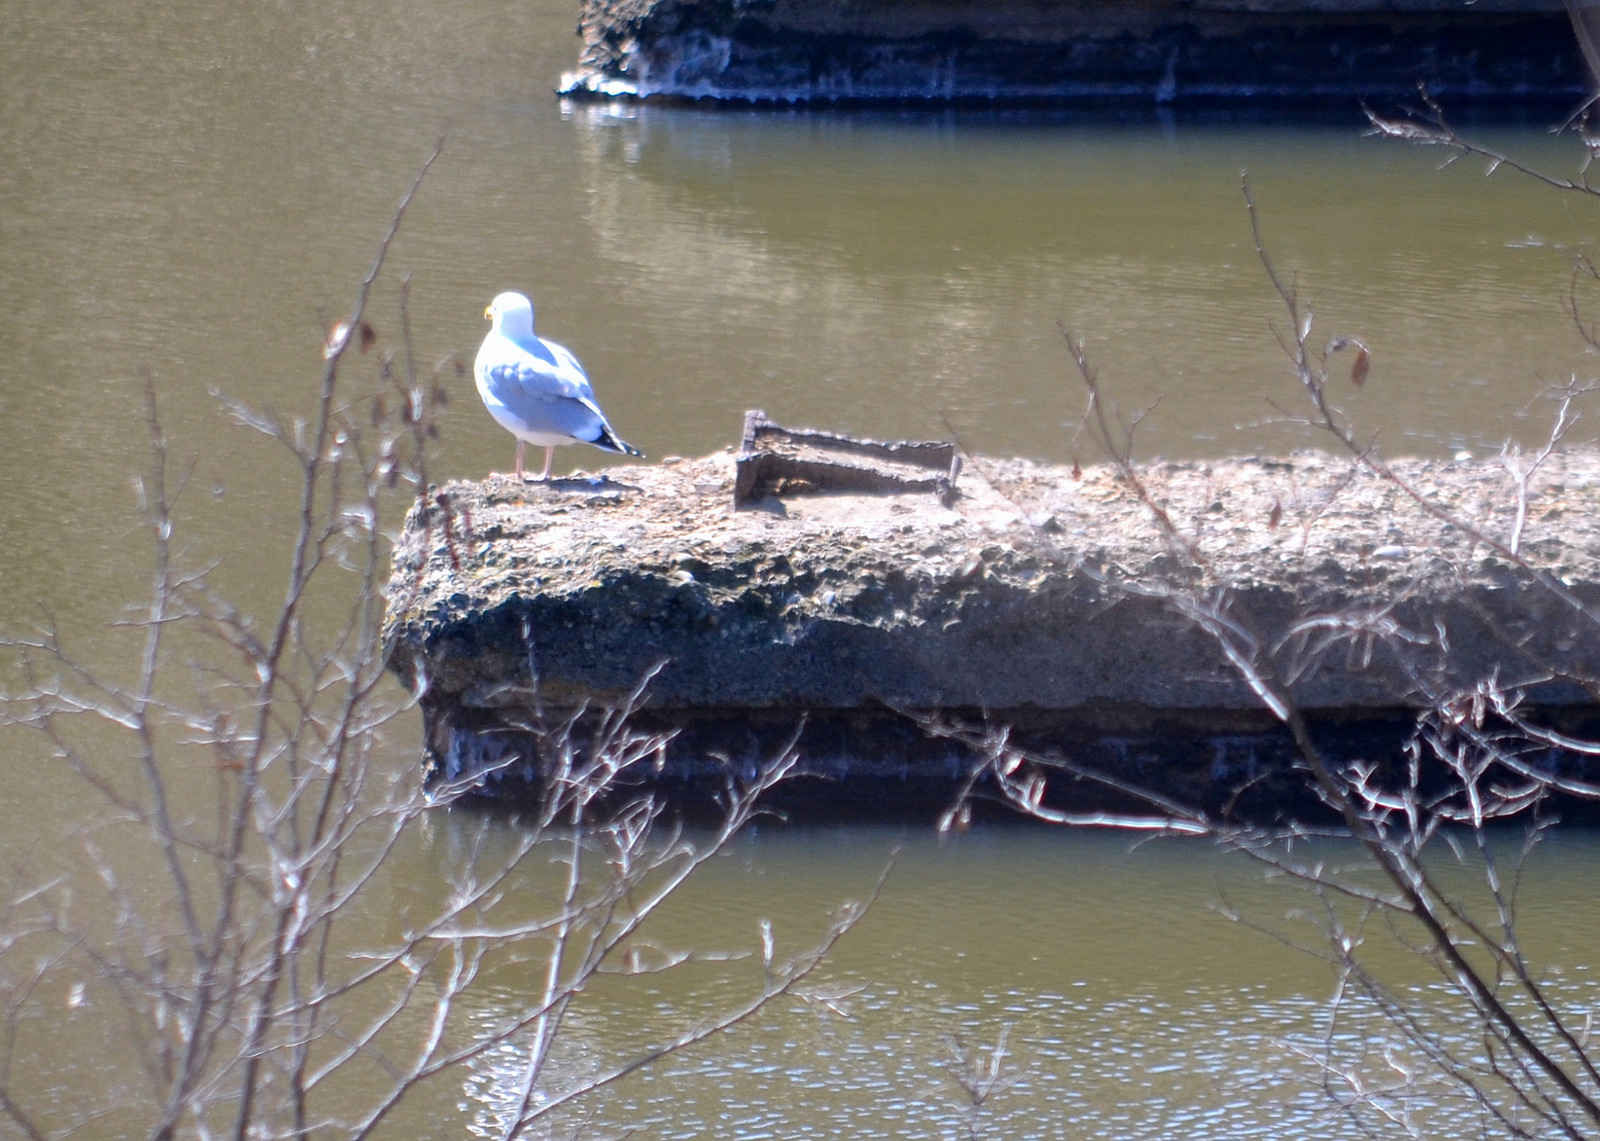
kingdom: Animalia
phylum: Chordata
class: Aves
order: Charadriiformes
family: Laridae
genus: Larus
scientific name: Larus argentatus
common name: Herring gull
